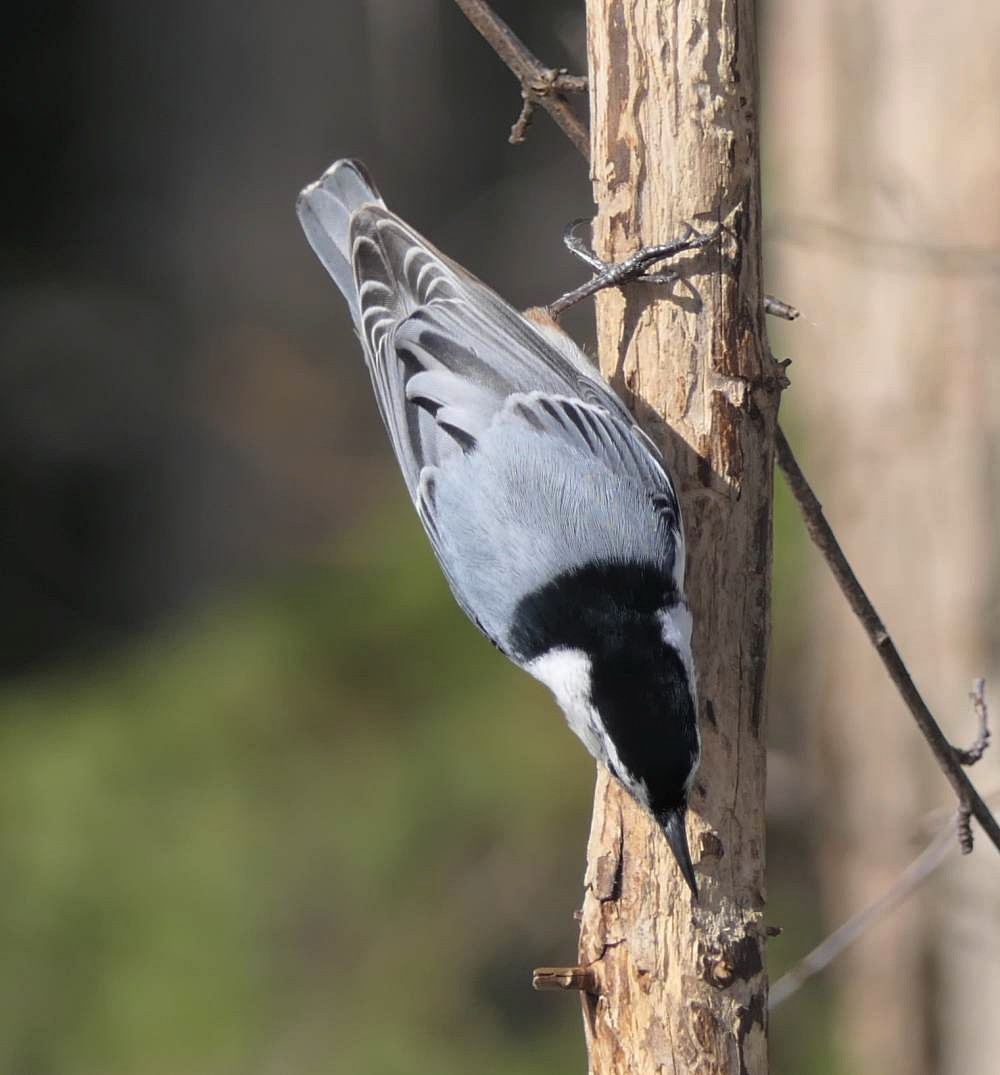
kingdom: Animalia
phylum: Chordata
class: Aves
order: Passeriformes
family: Sittidae
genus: Sitta
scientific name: Sitta carolinensis
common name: White-breasted nuthatch
